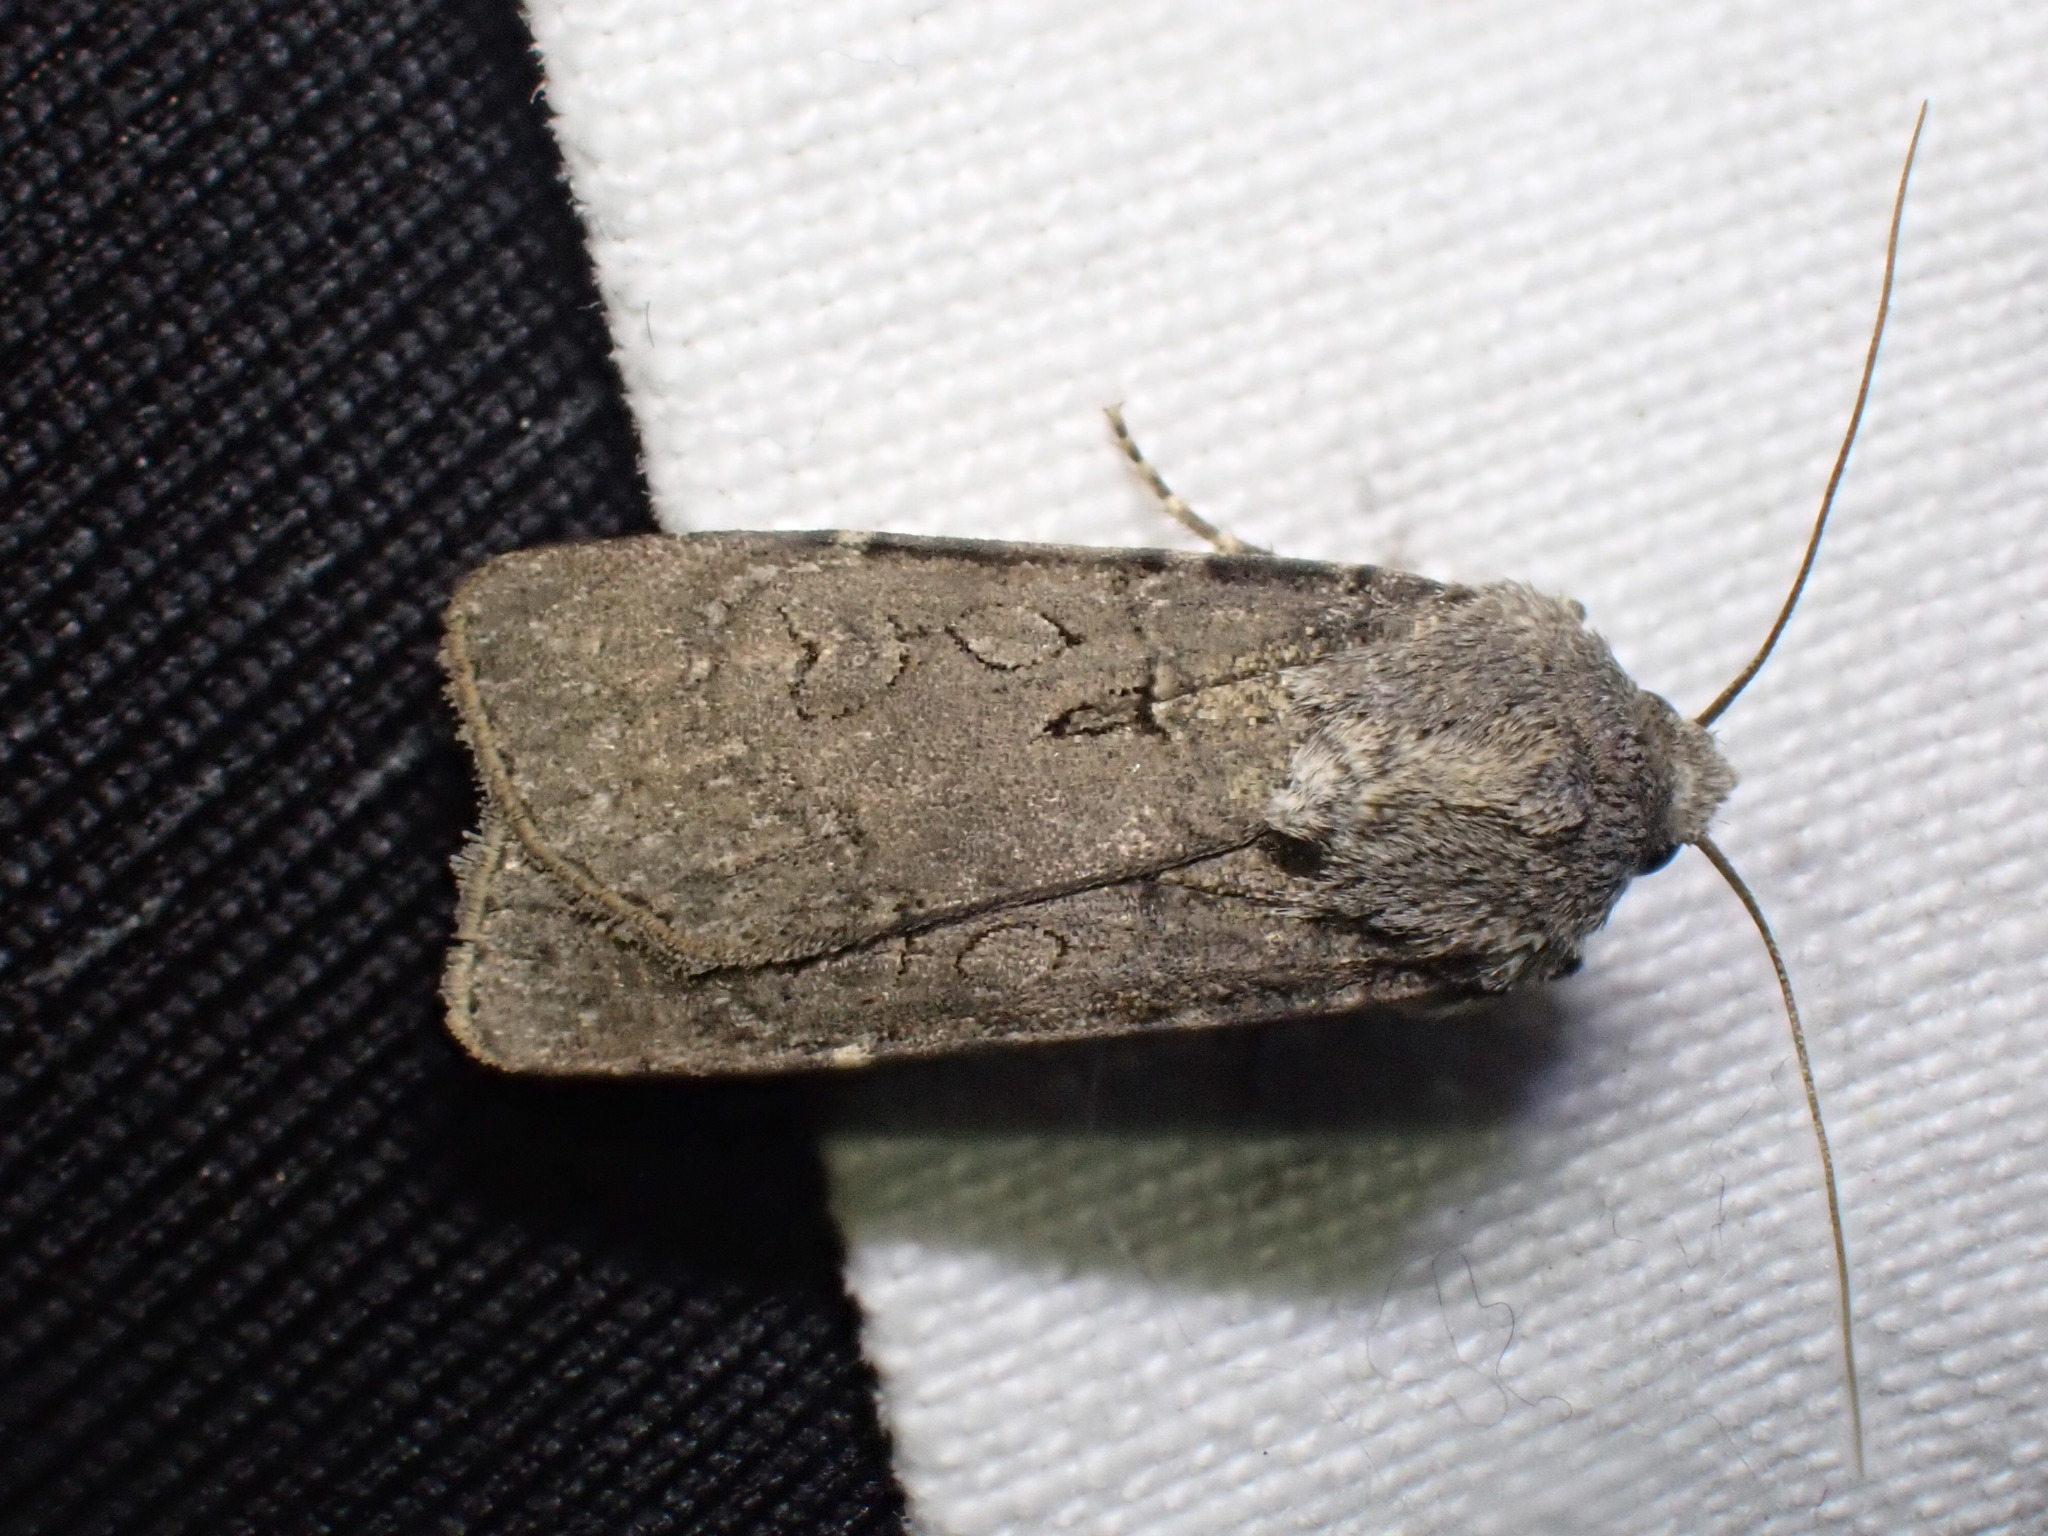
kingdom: Animalia
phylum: Arthropoda
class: Insecta
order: Lepidoptera
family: Noctuidae
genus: Euxoa
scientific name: Euxoa nigricans
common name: Garden dart
